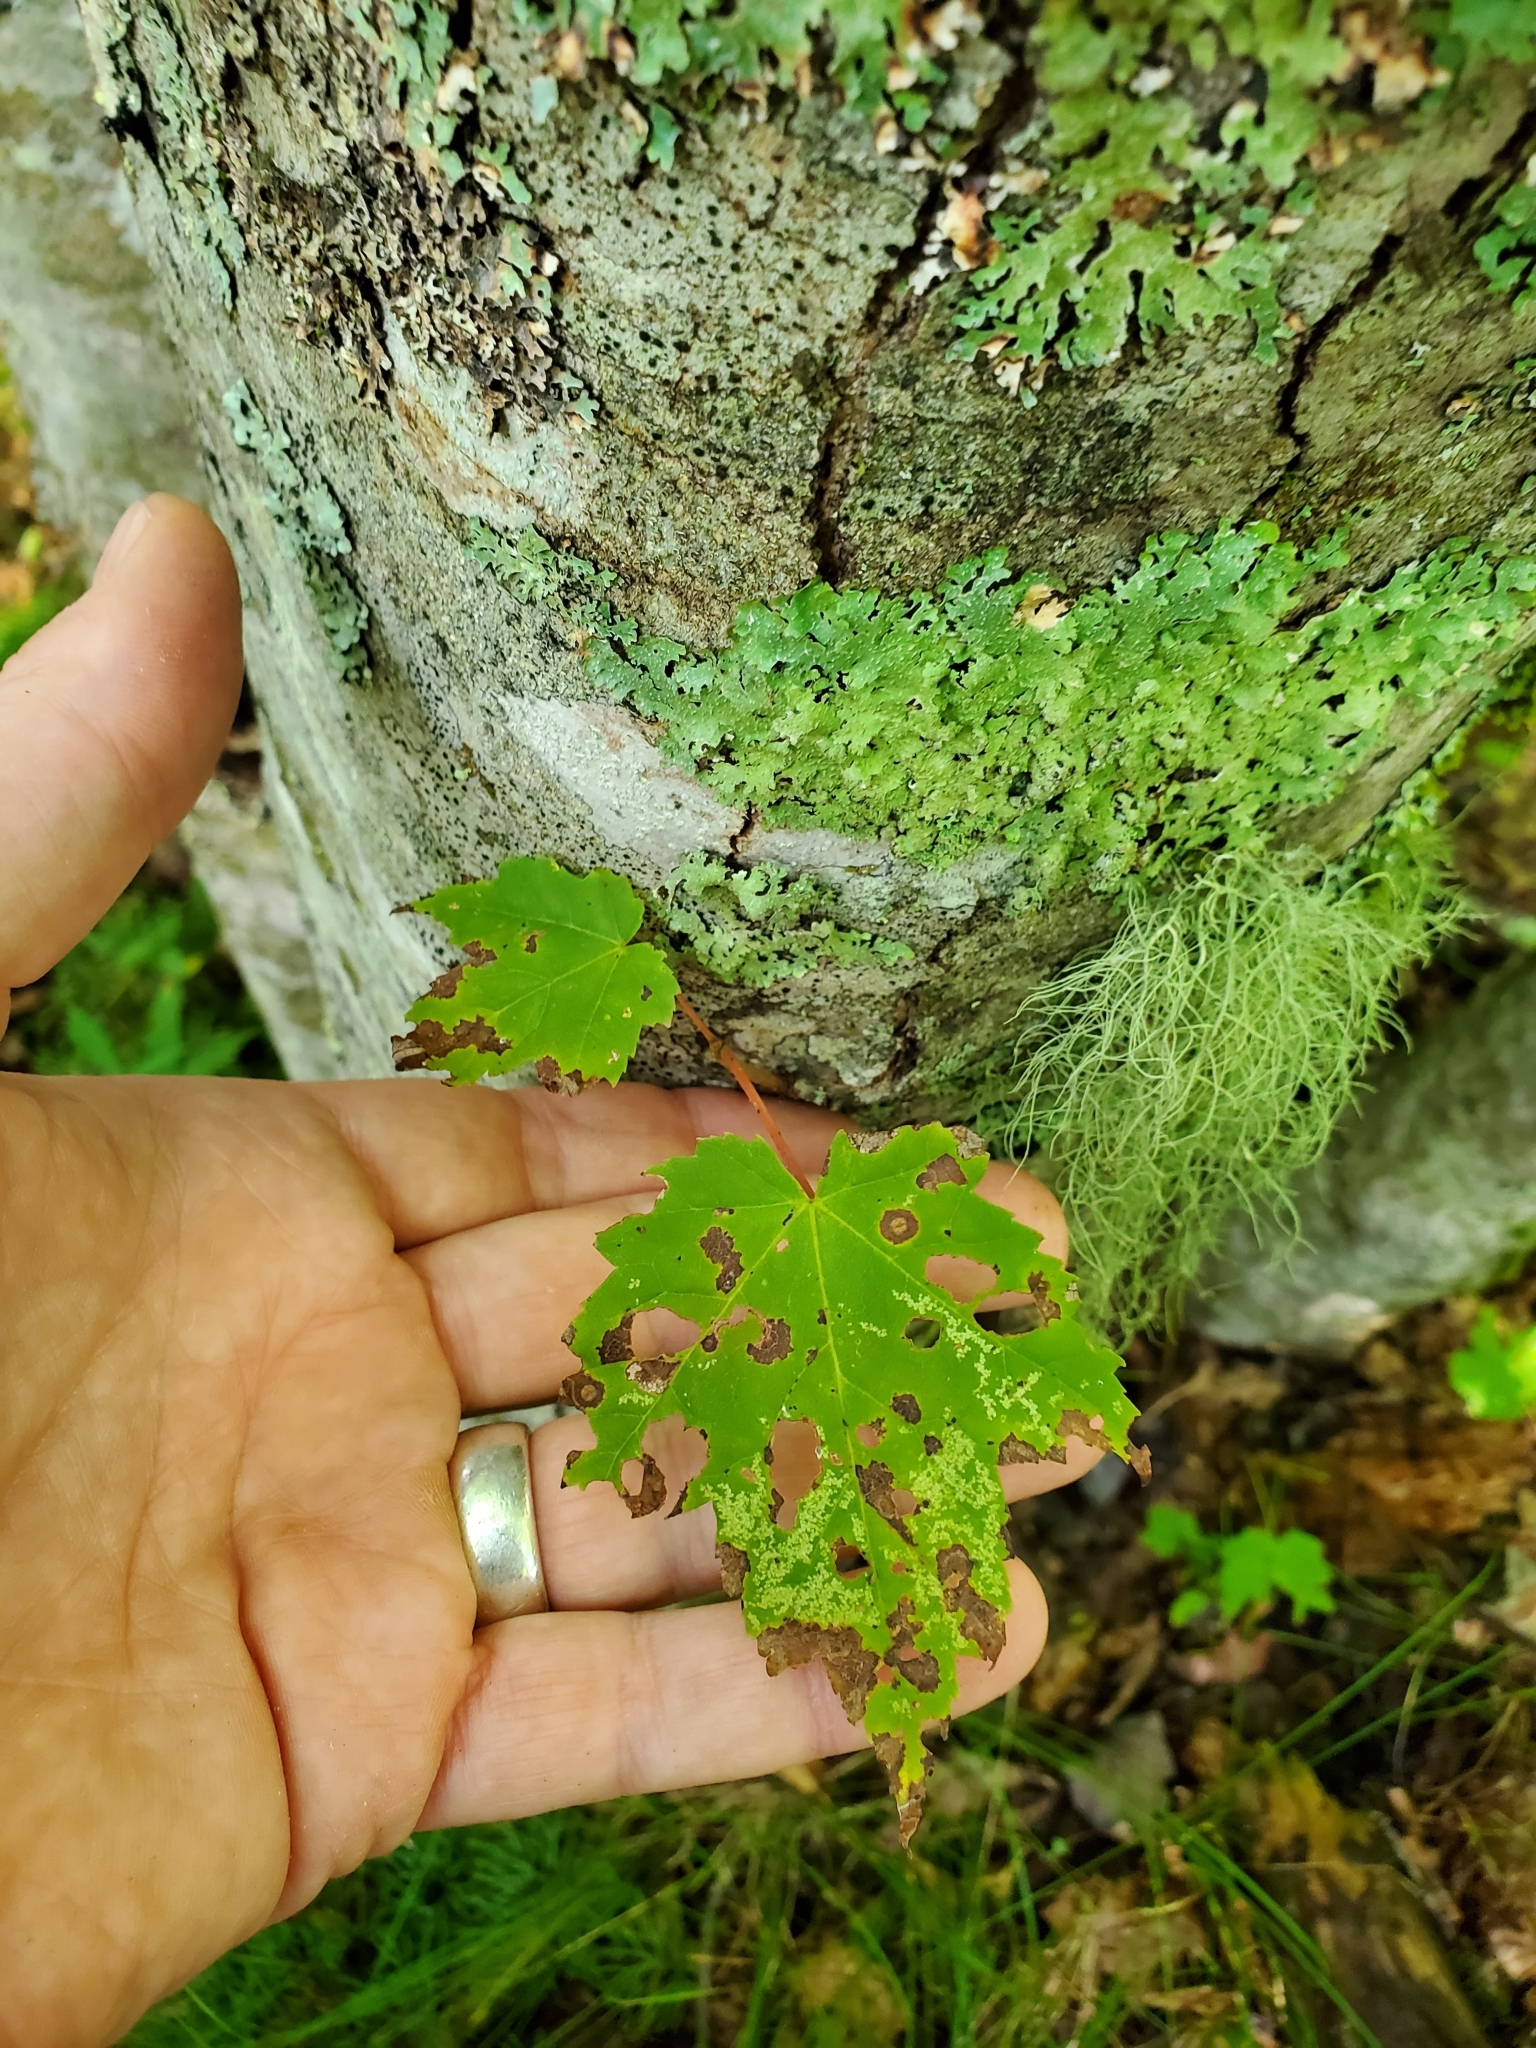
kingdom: Plantae
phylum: Tracheophyta
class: Magnoliopsida
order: Sapindales
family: Sapindaceae
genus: Acer
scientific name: Acer rubrum
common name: Red maple
